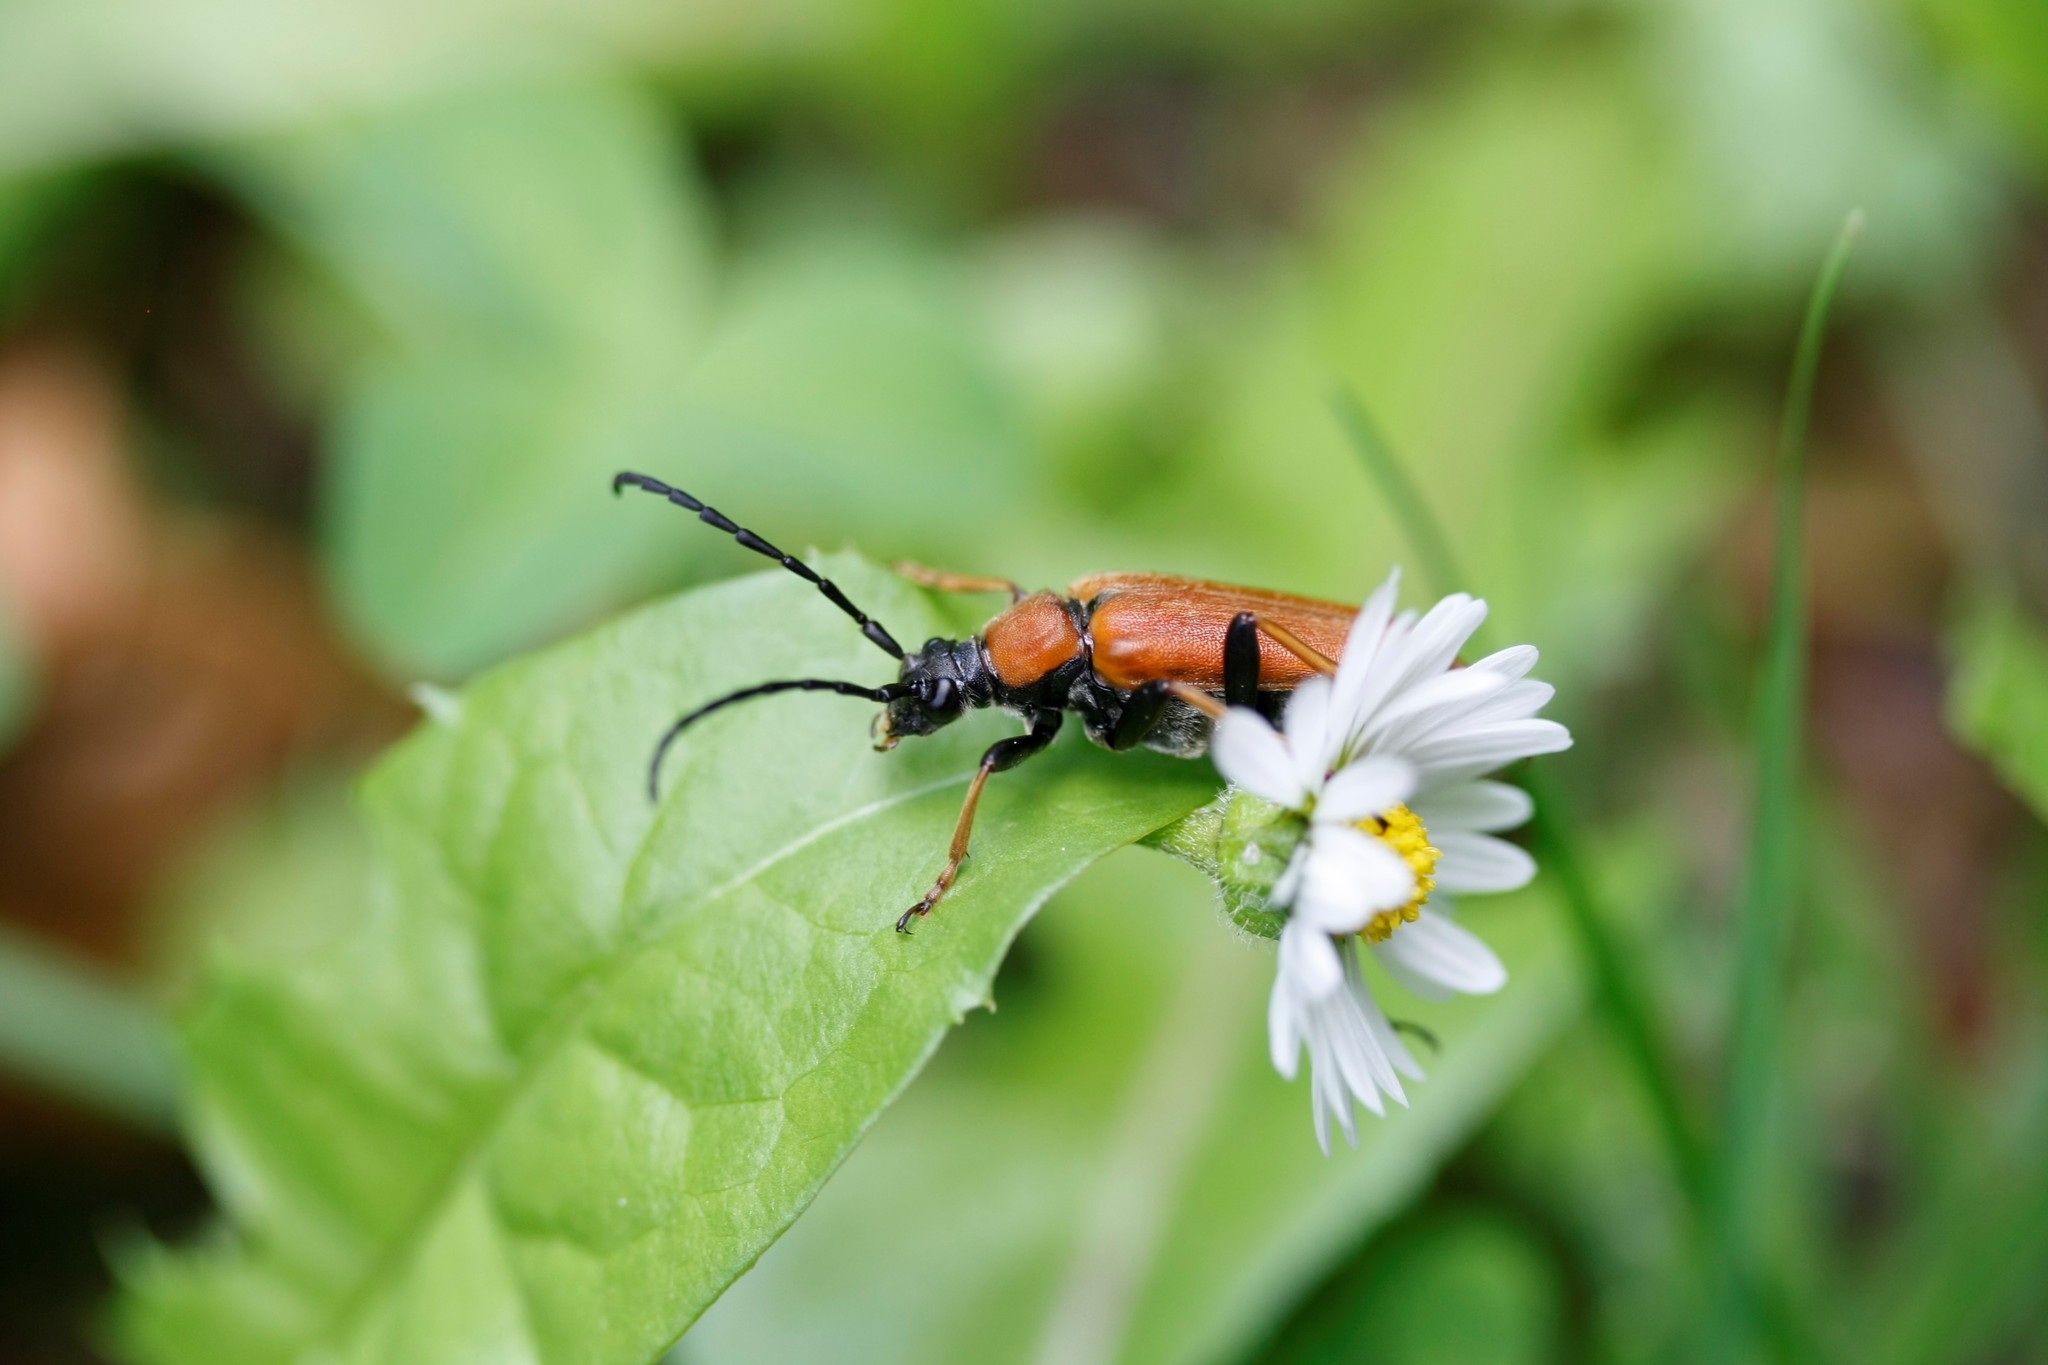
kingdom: Animalia
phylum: Arthropoda
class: Insecta
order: Coleoptera
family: Cerambycidae
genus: Stictoleptura
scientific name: Stictoleptura rubra
